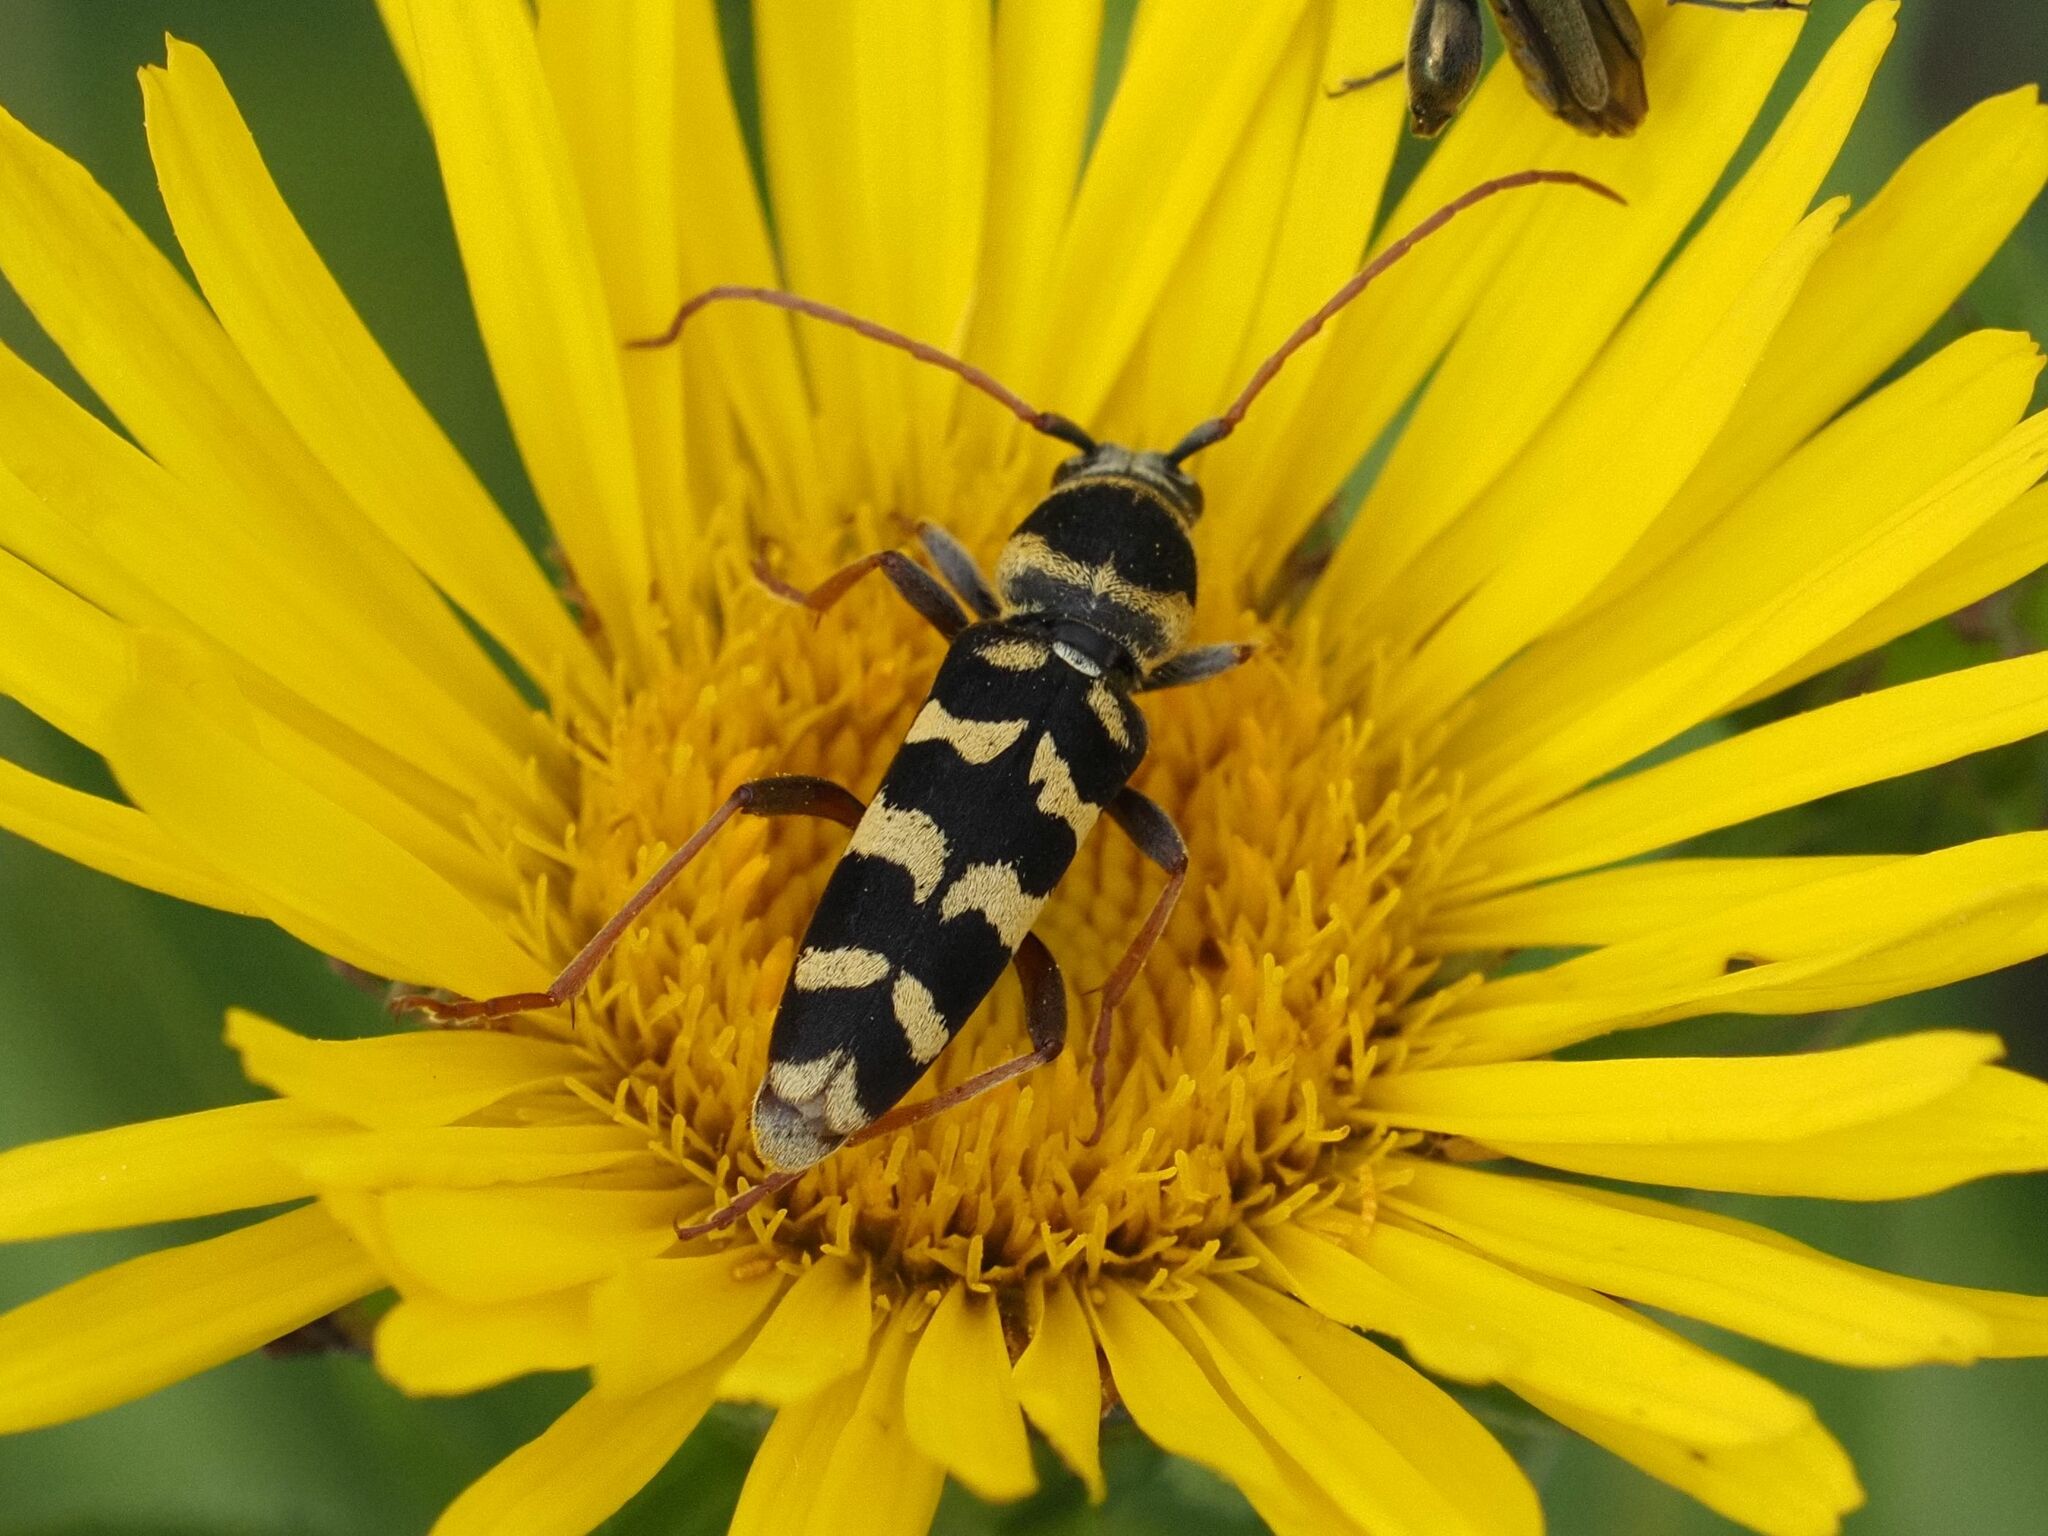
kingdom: Animalia
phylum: Arthropoda
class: Insecta
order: Coleoptera
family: Cerambycidae
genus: Plagionotus
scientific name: Plagionotus floralis
